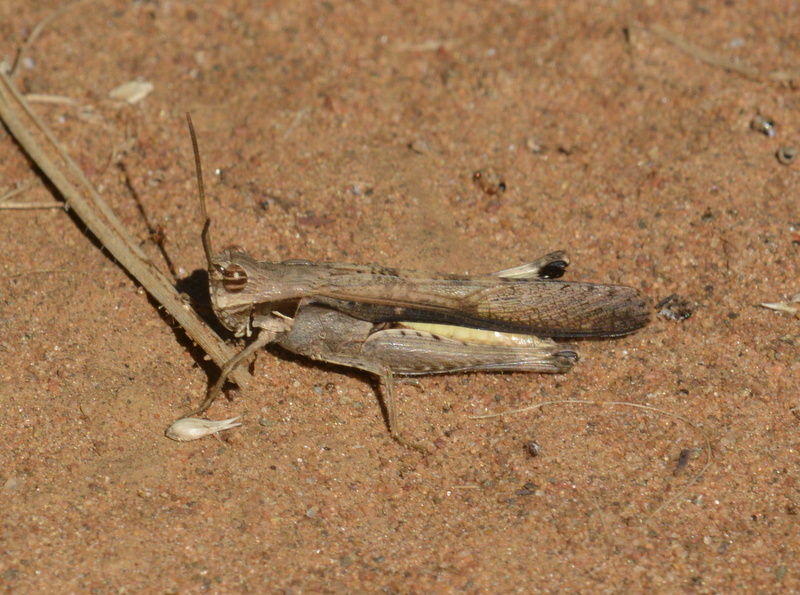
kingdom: Animalia
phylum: Arthropoda
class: Insecta
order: Orthoptera
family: Acrididae
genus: Morphacris
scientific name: Morphacris fasciata
